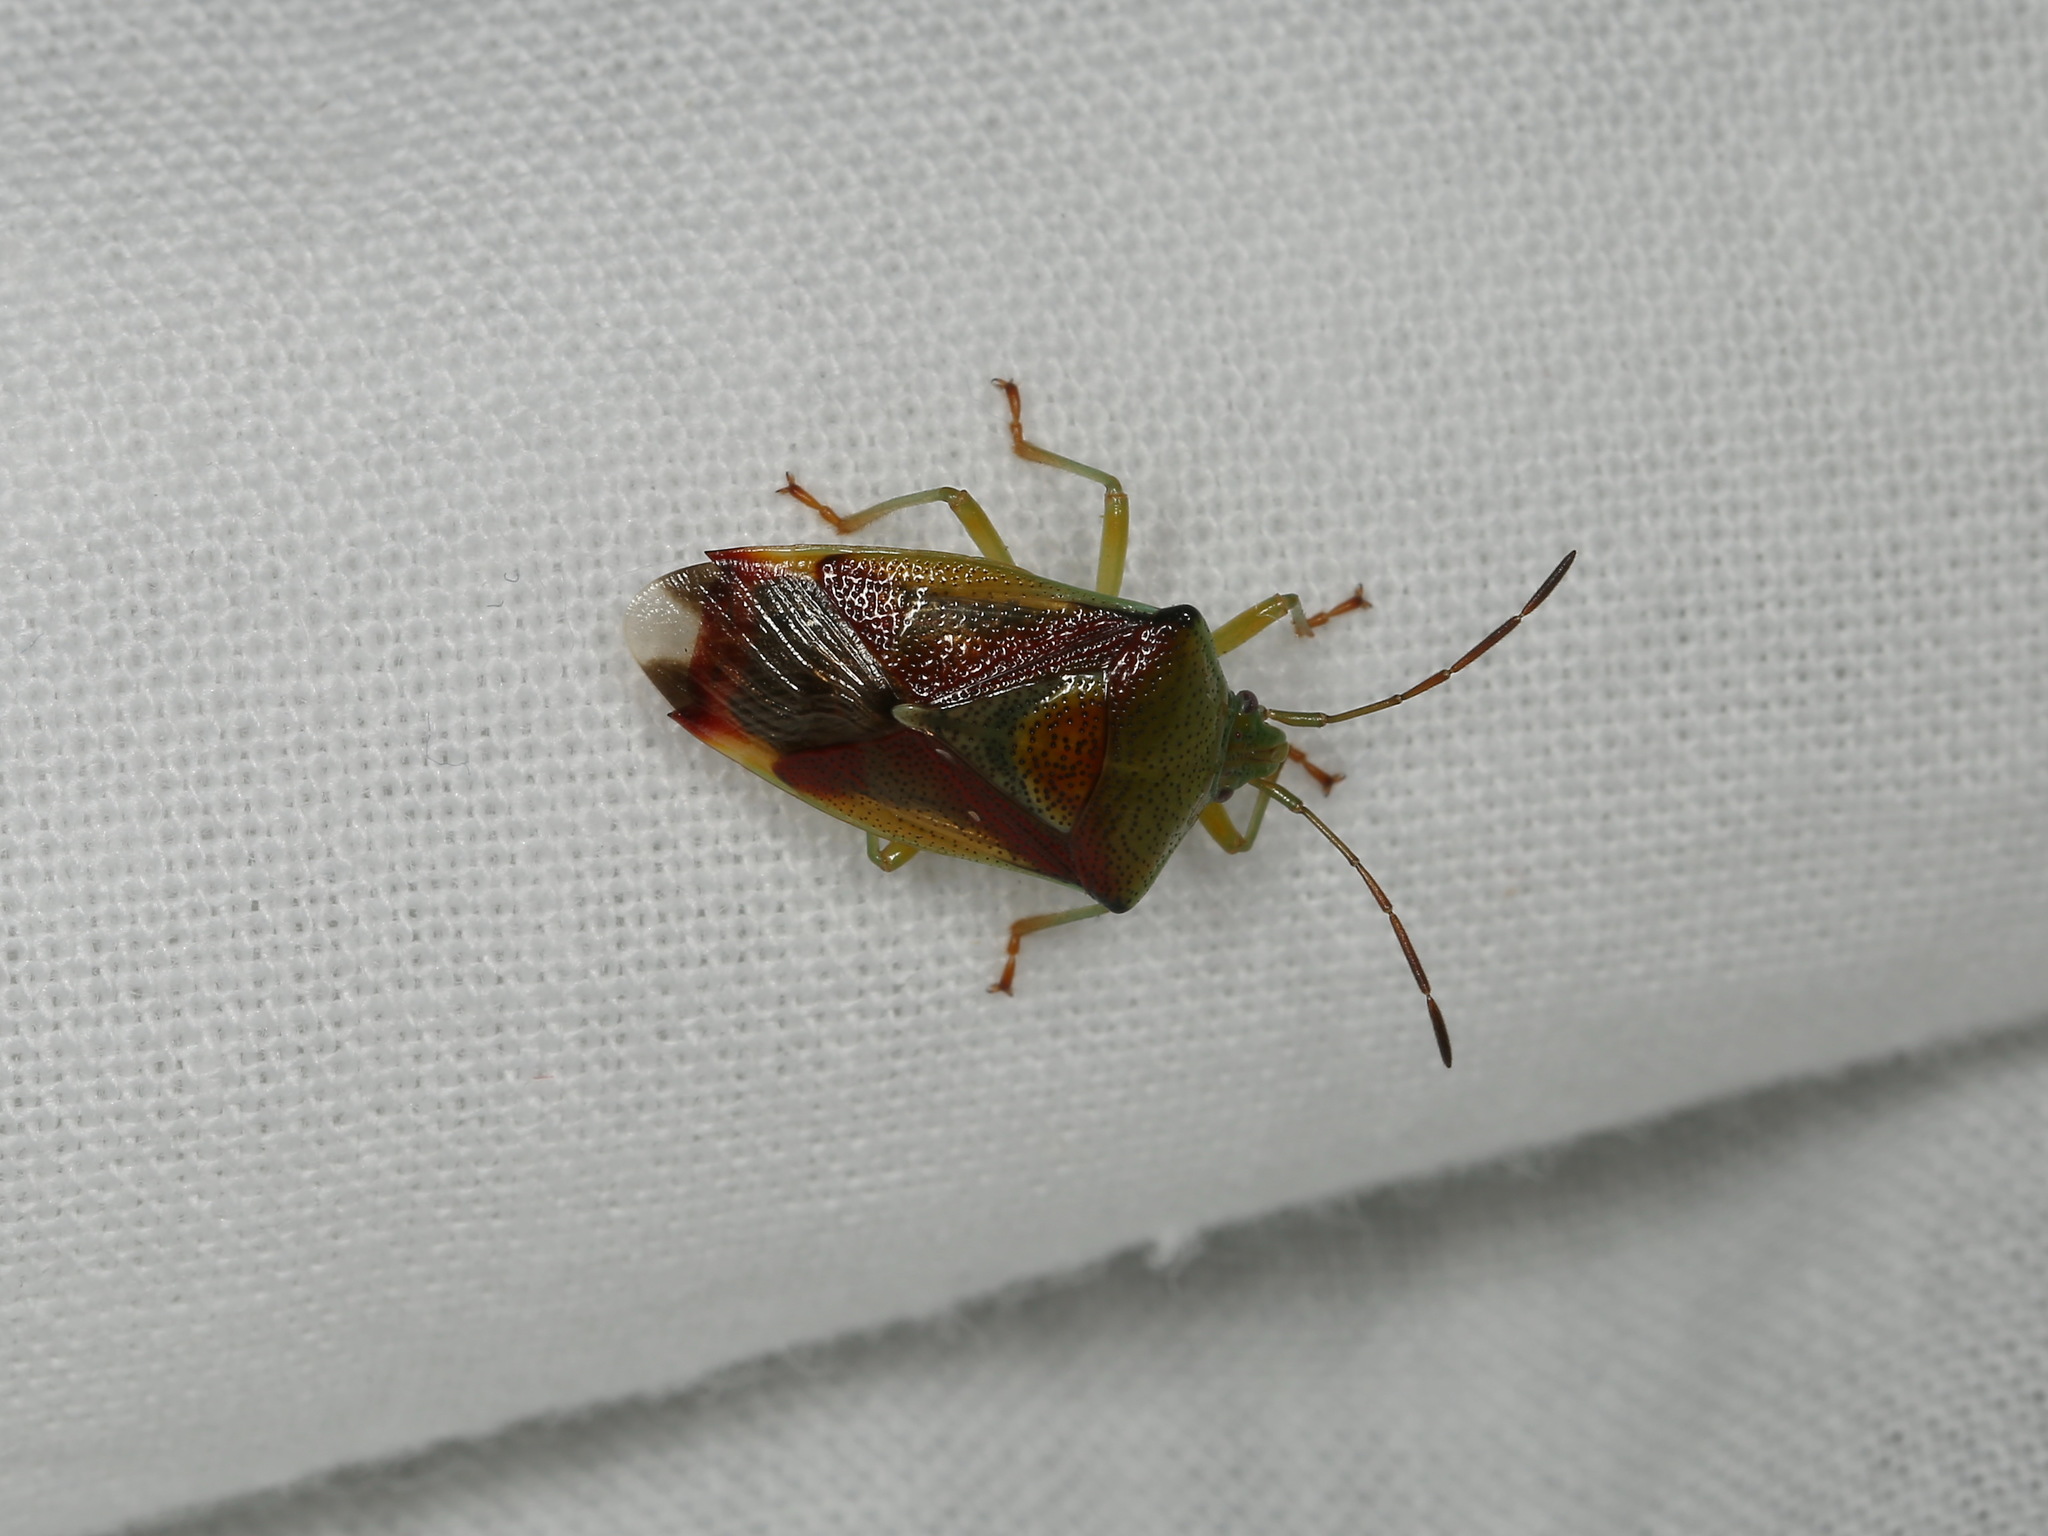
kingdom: Animalia
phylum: Arthropoda
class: Insecta
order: Hemiptera
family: Acanthosomatidae
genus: Elasmostethus
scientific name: Elasmostethus
